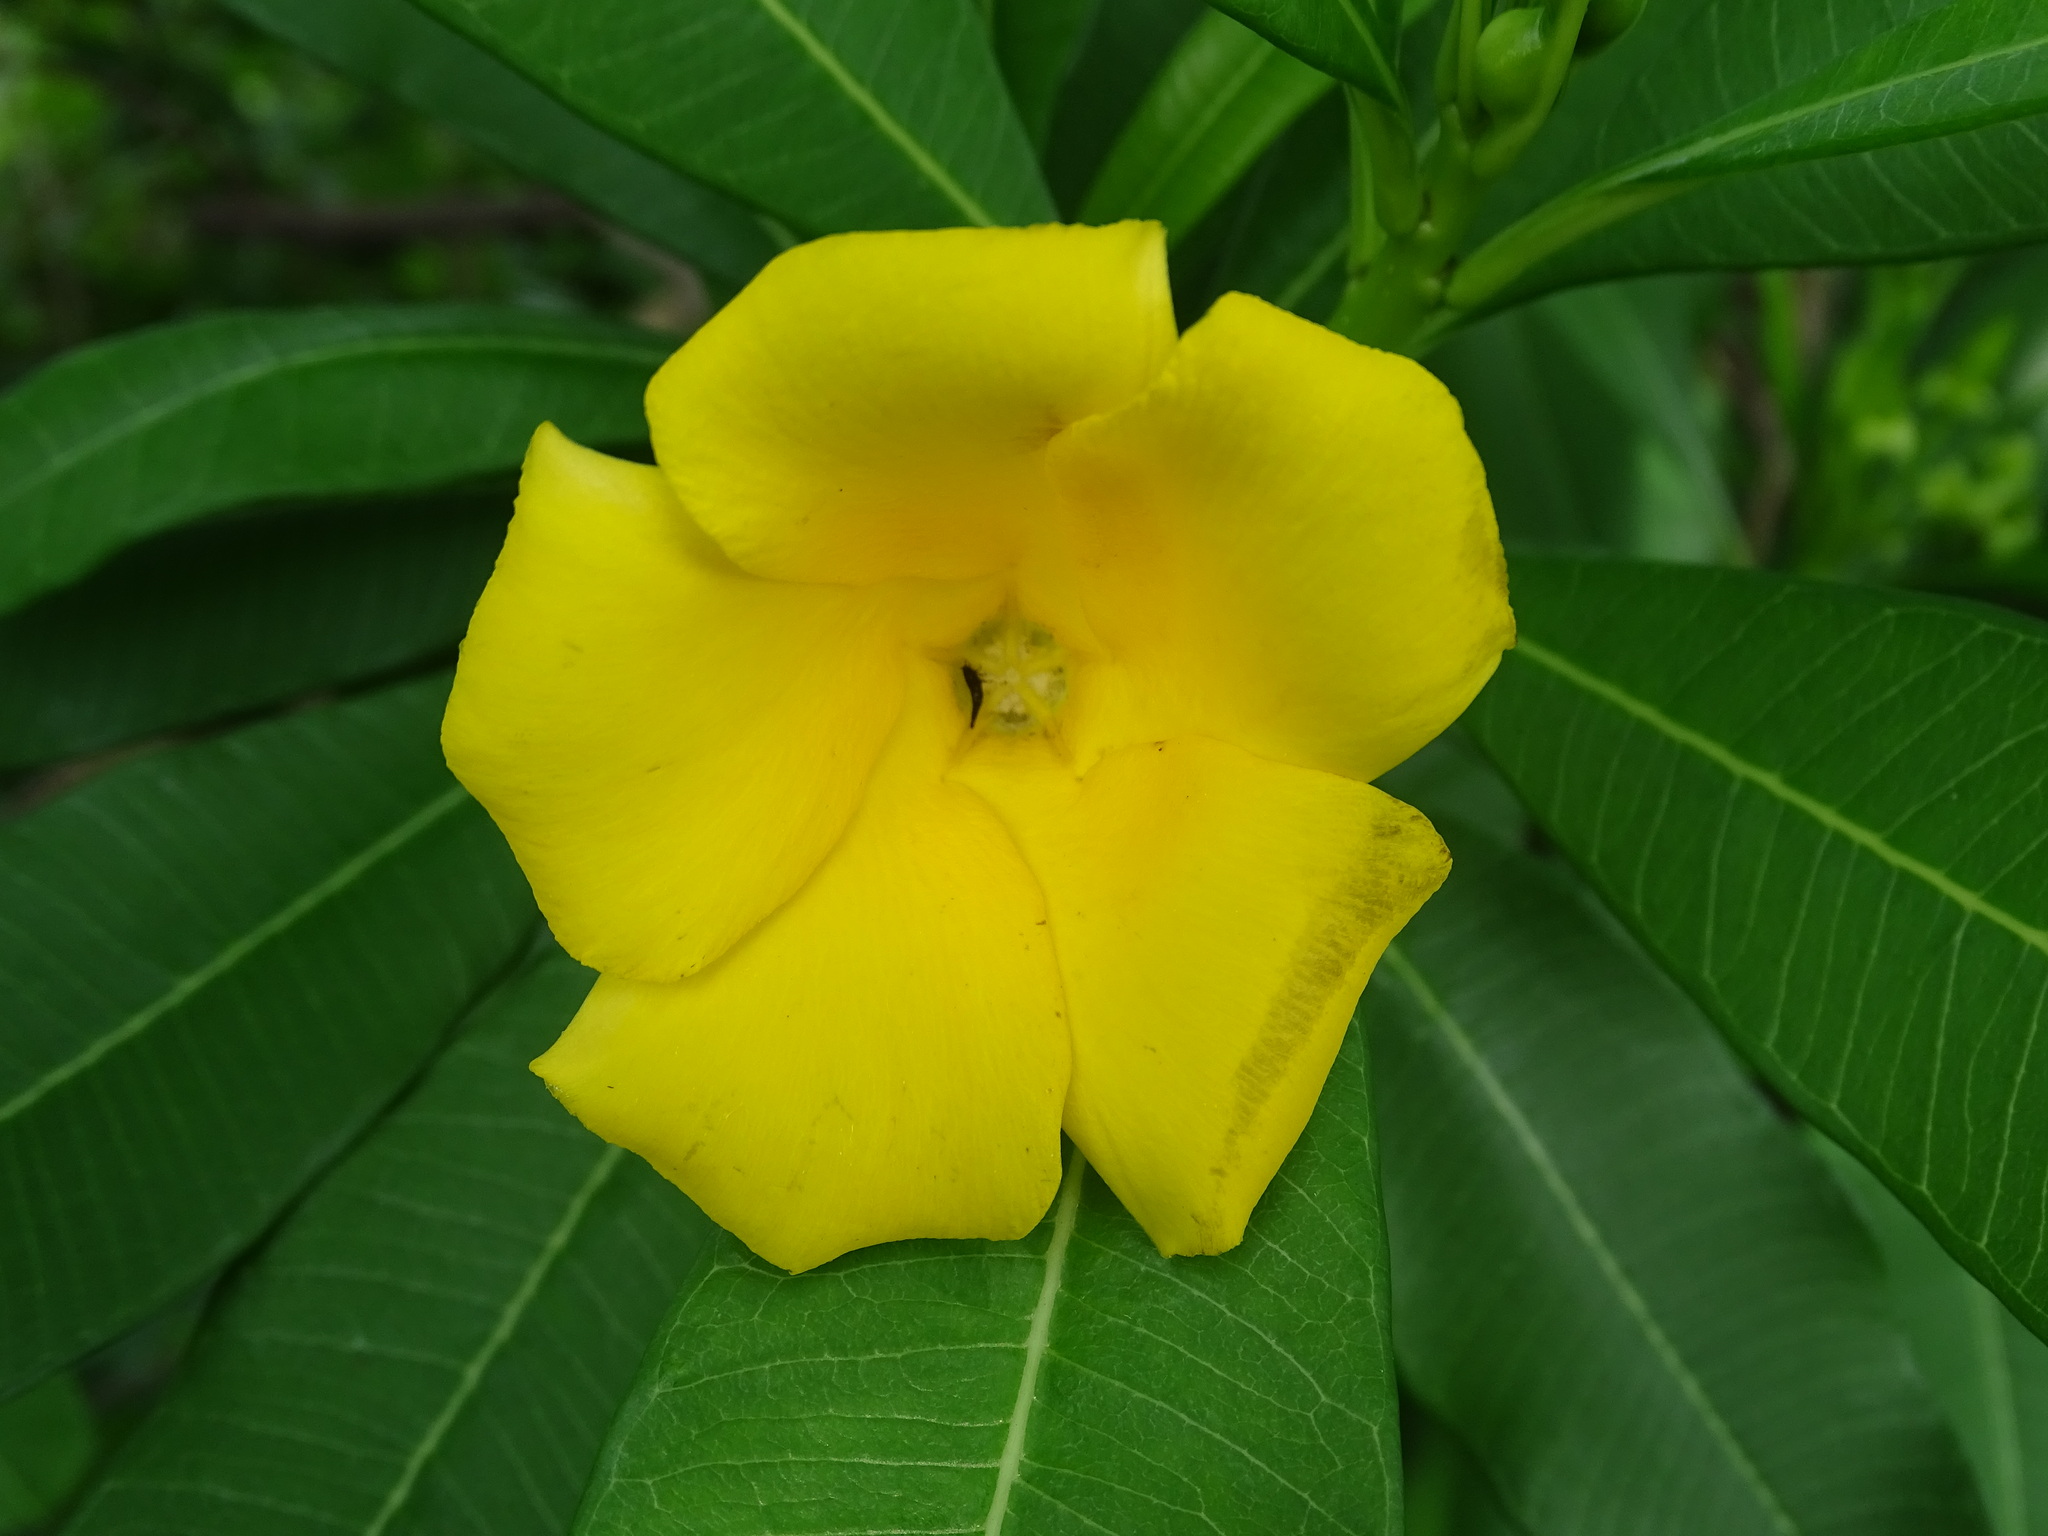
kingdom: Plantae
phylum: Tracheophyta
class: Magnoliopsida
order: Gentianales
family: Apocynaceae
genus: Cascabela
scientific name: Cascabela ovata
